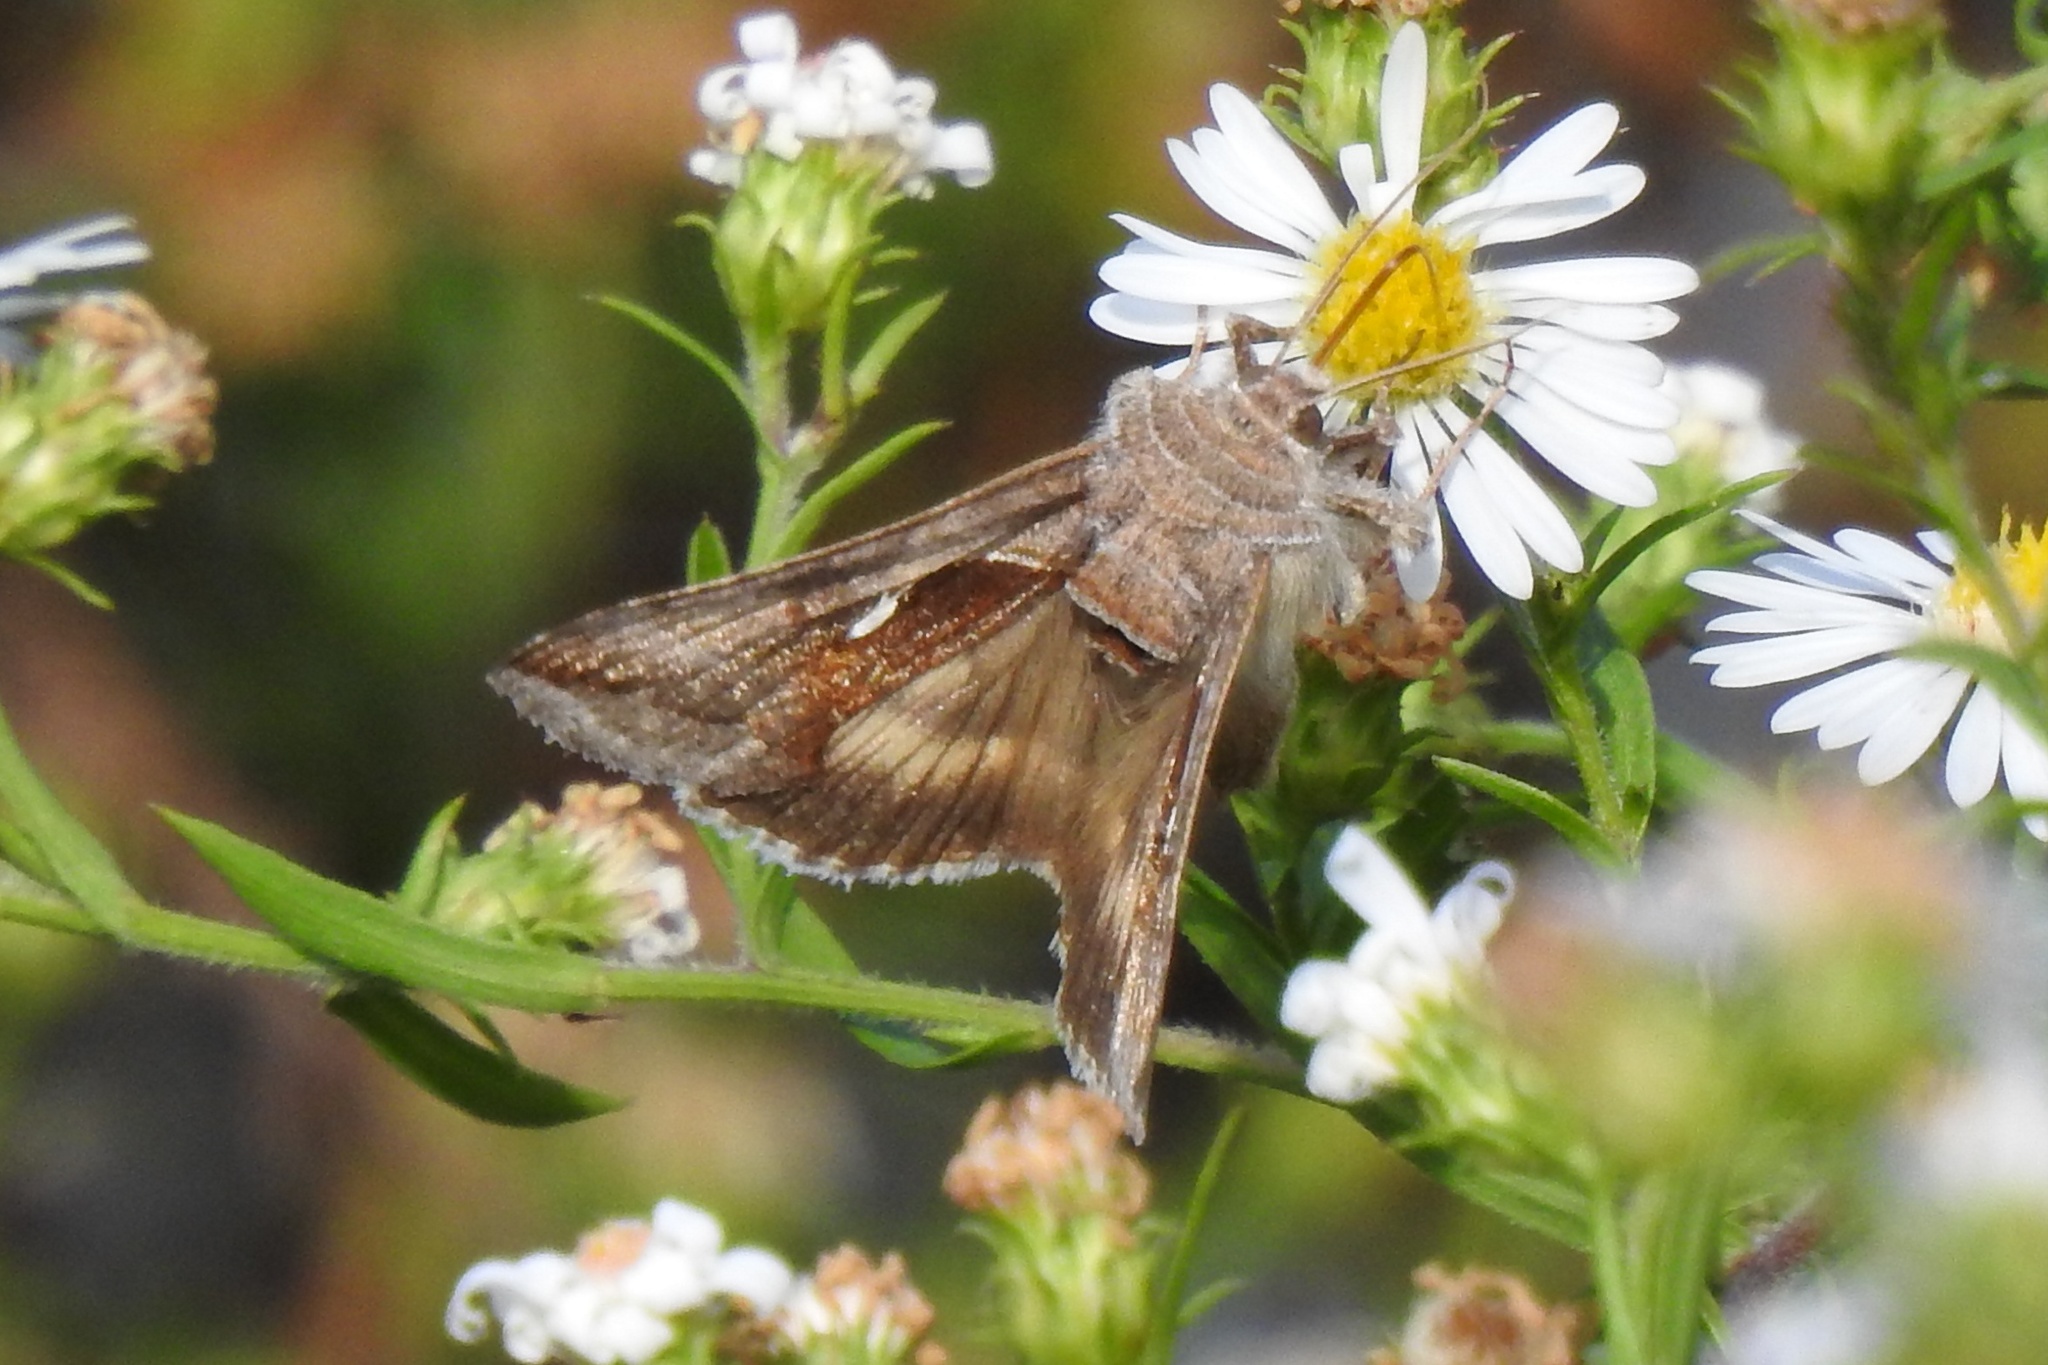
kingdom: Animalia
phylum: Arthropoda
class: Insecta
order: Lepidoptera
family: Noctuidae
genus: Anagrapha
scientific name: Anagrapha falcifera
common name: Celery looper
